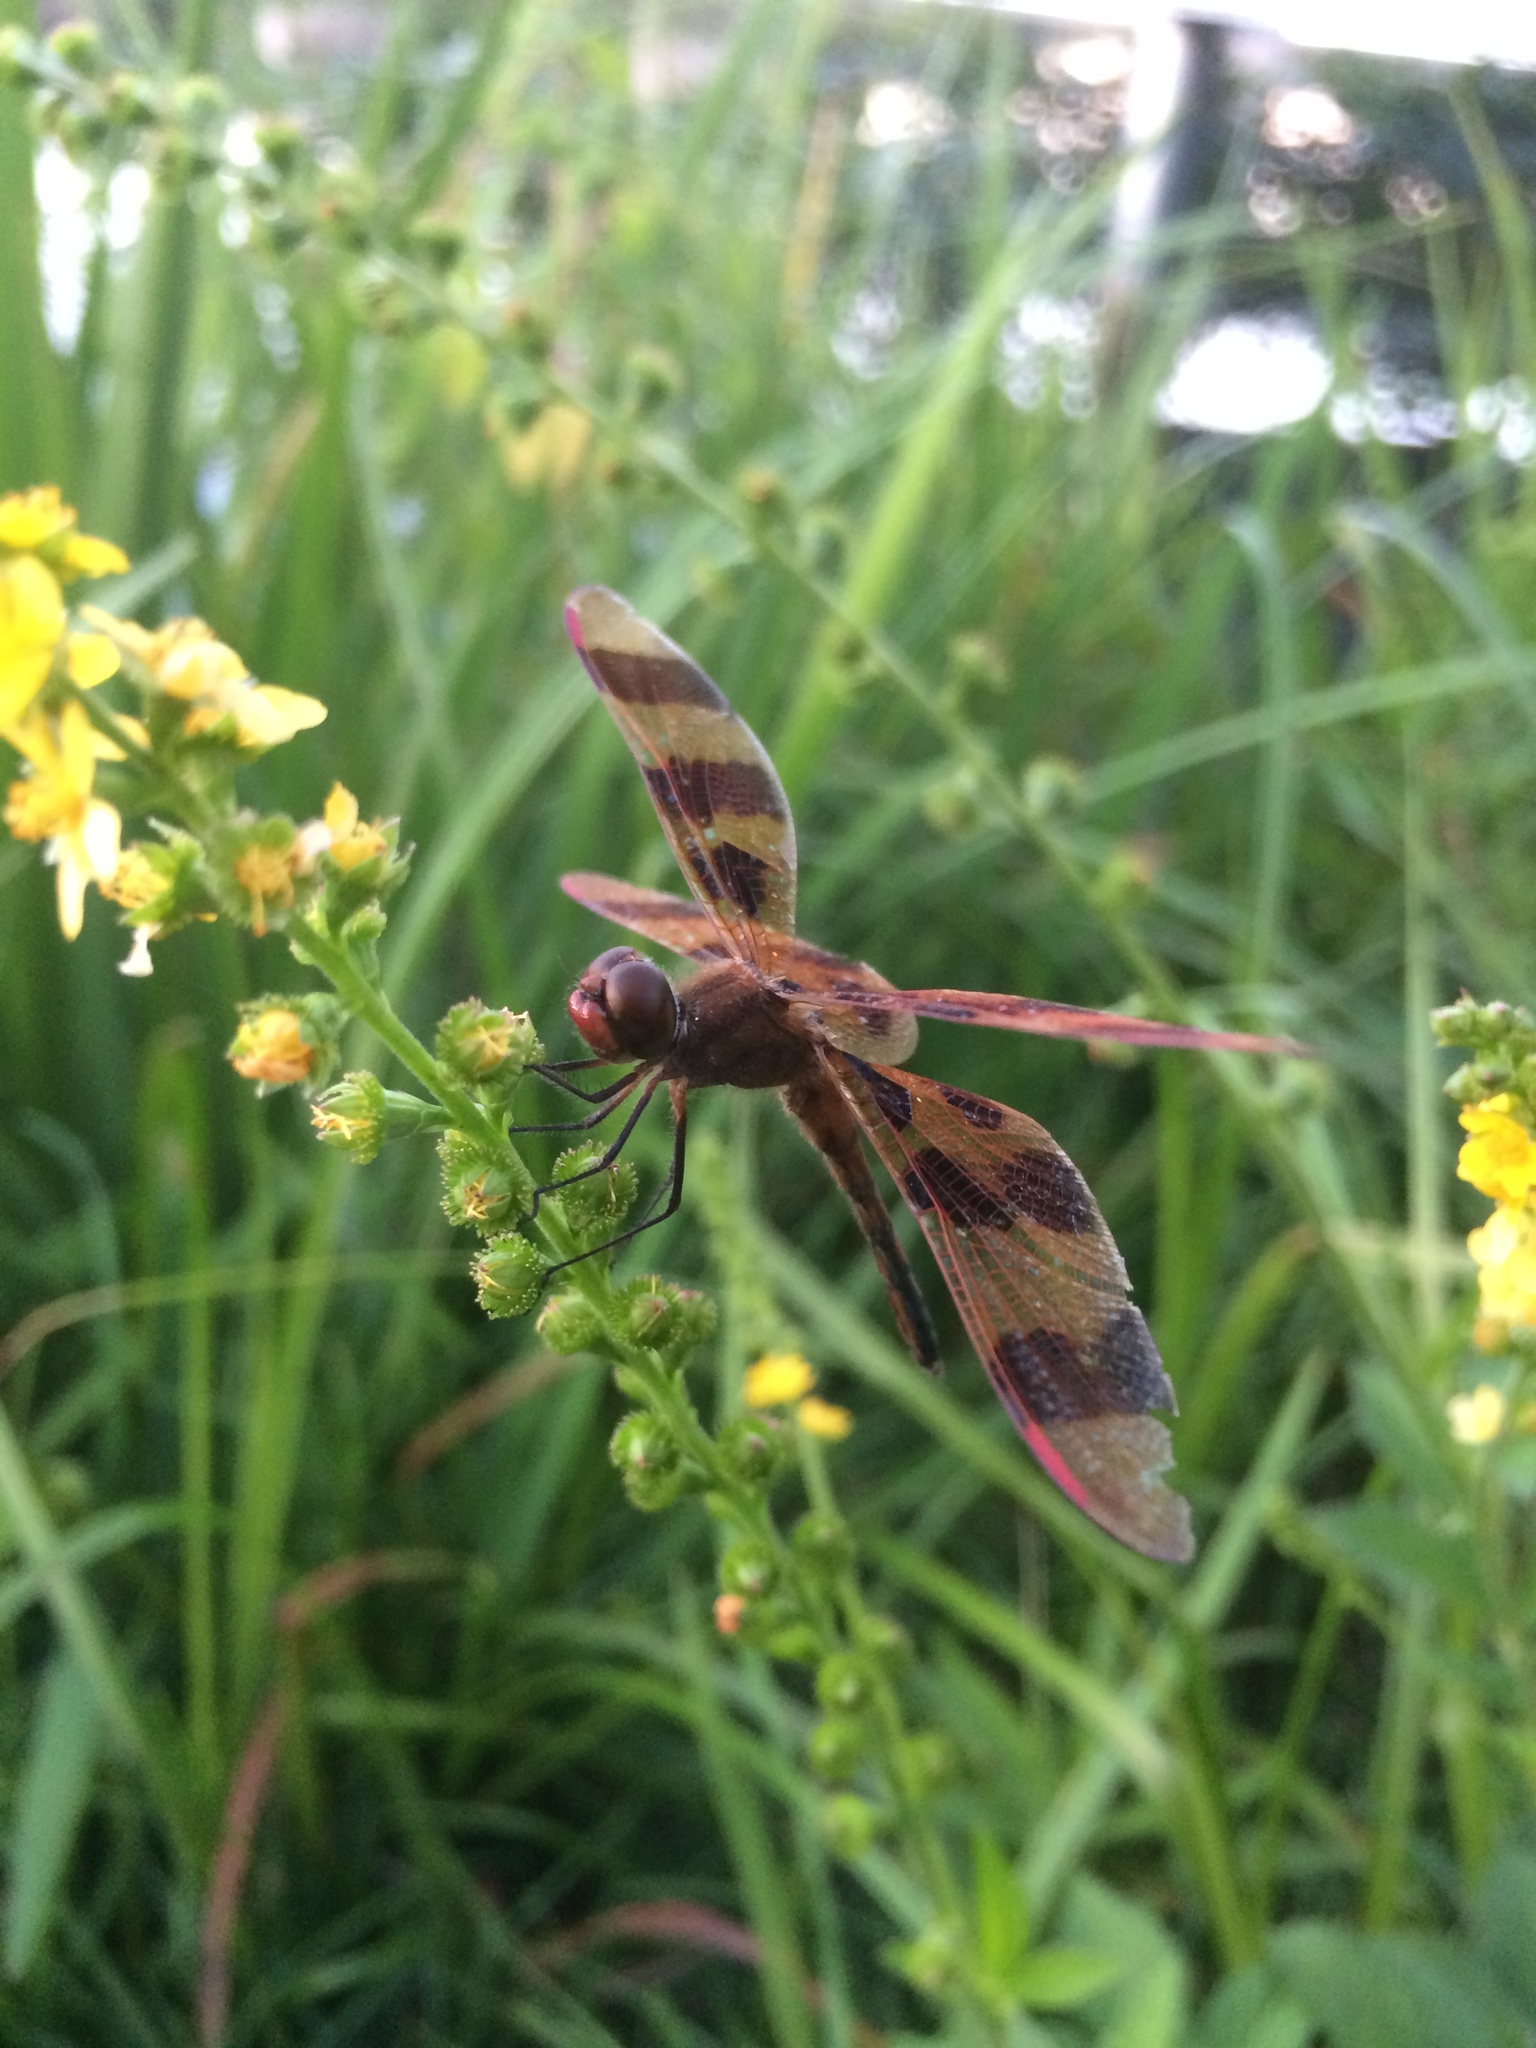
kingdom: Plantae
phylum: Tracheophyta
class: Magnoliopsida
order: Rosales
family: Rosaceae
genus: Agrimonia
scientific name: Agrimonia striata
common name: Britton's agrimony
